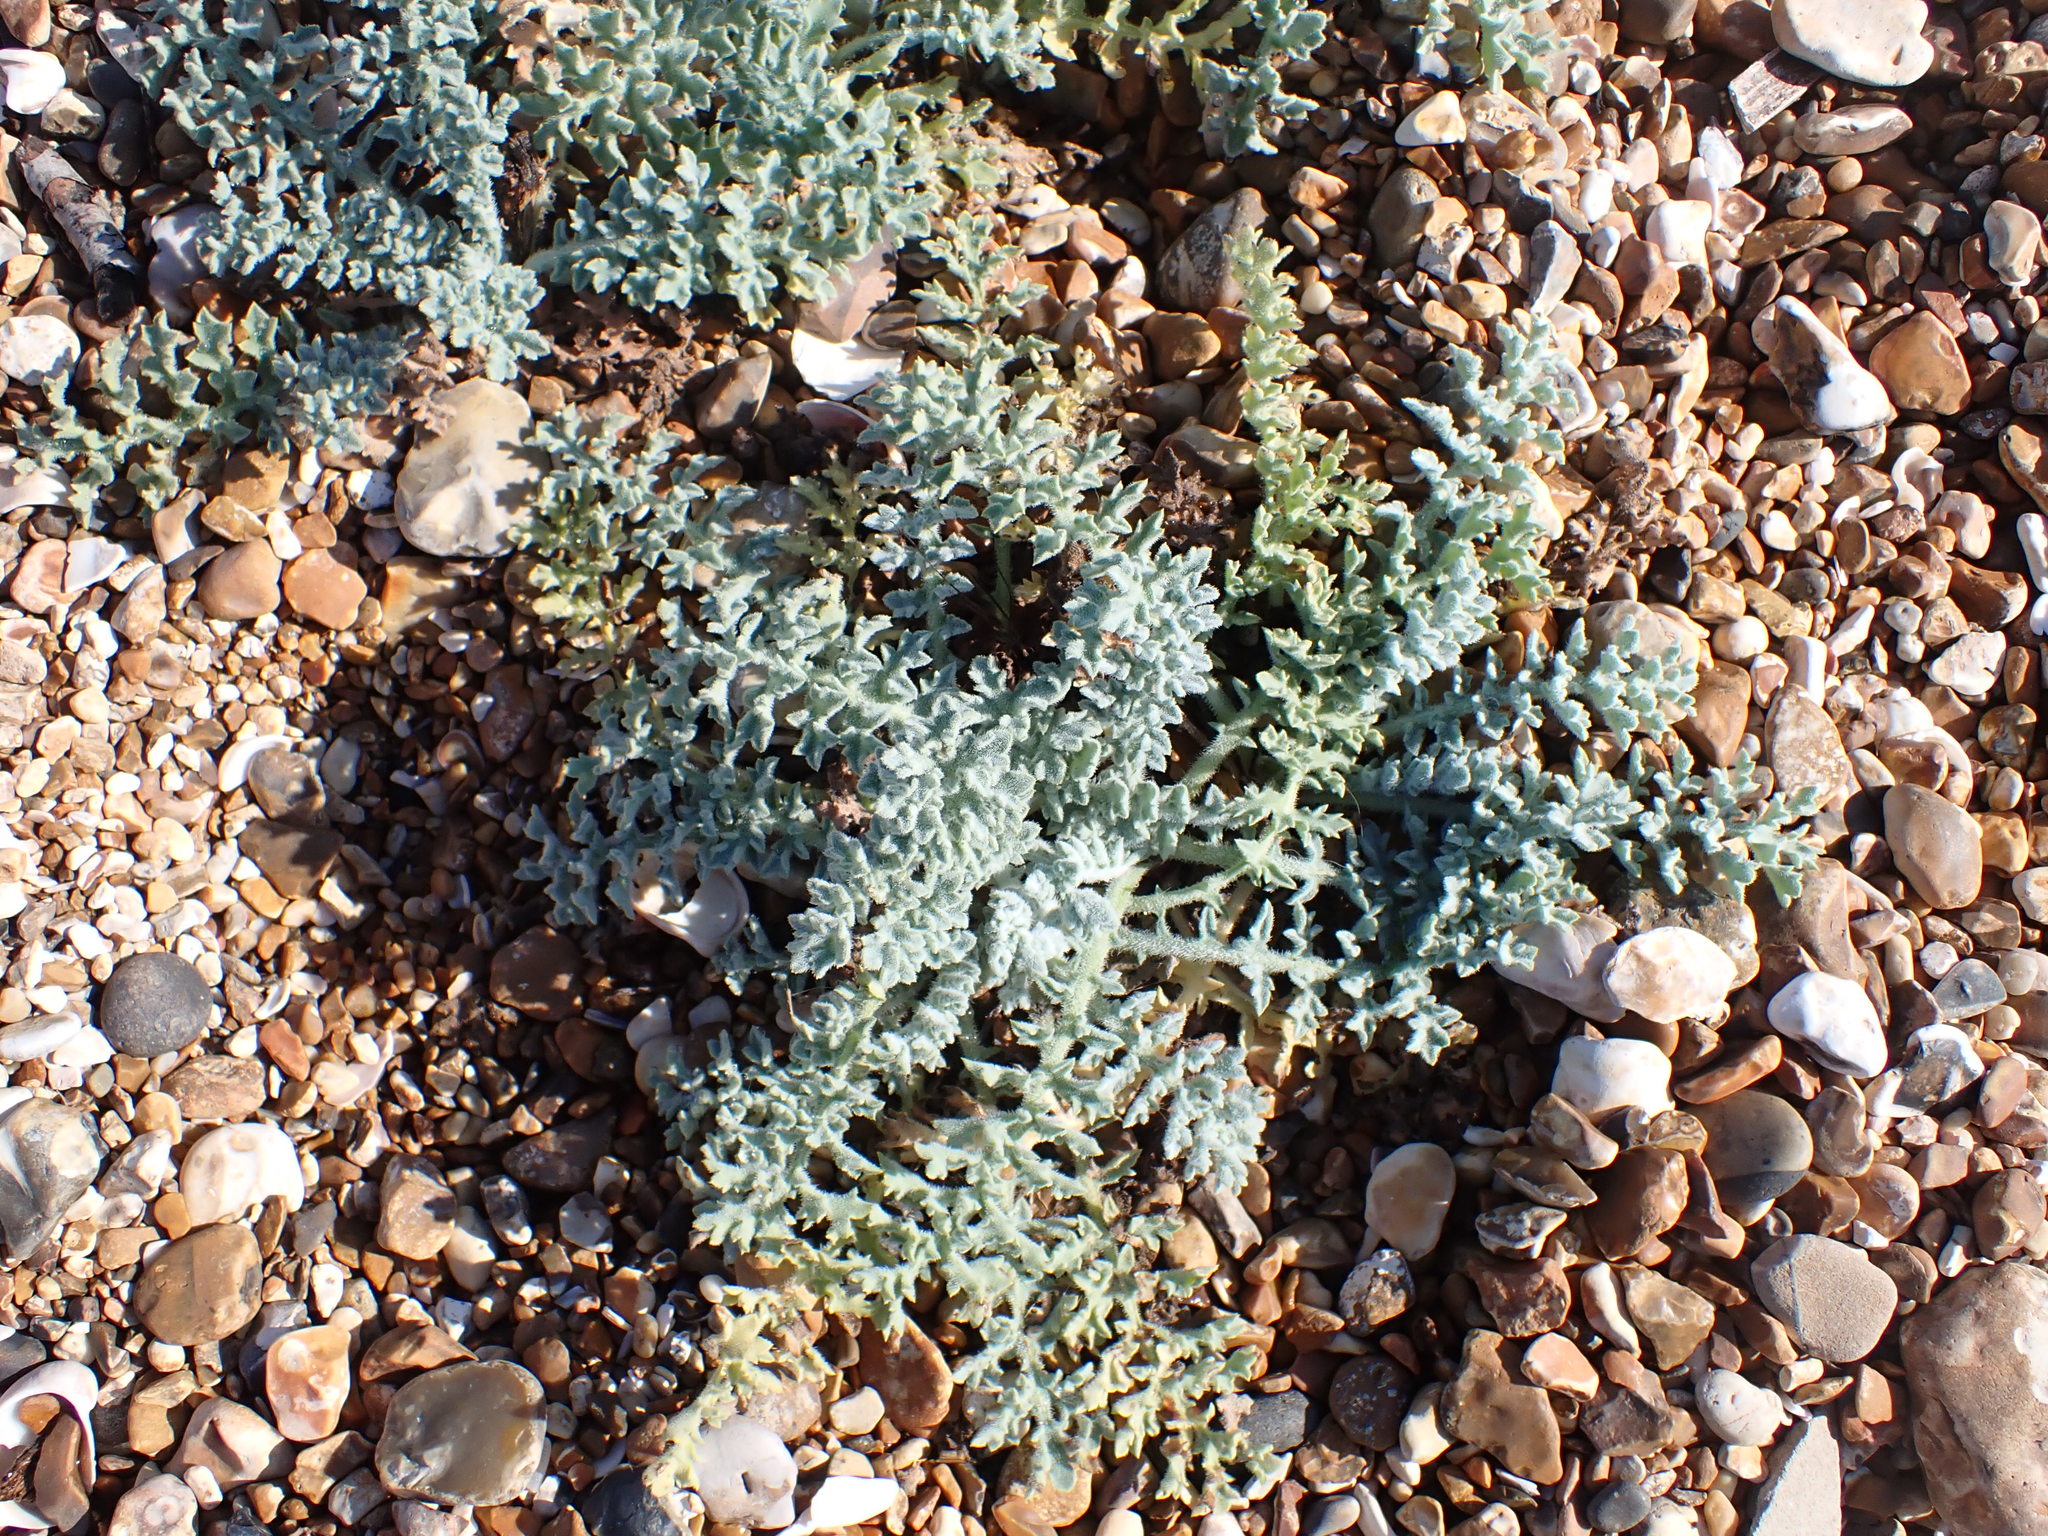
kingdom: Plantae
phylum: Tracheophyta
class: Magnoliopsida
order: Ranunculales
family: Papaveraceae
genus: Glaucium
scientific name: Glaucium flavum
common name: Yellow horned-poppy
